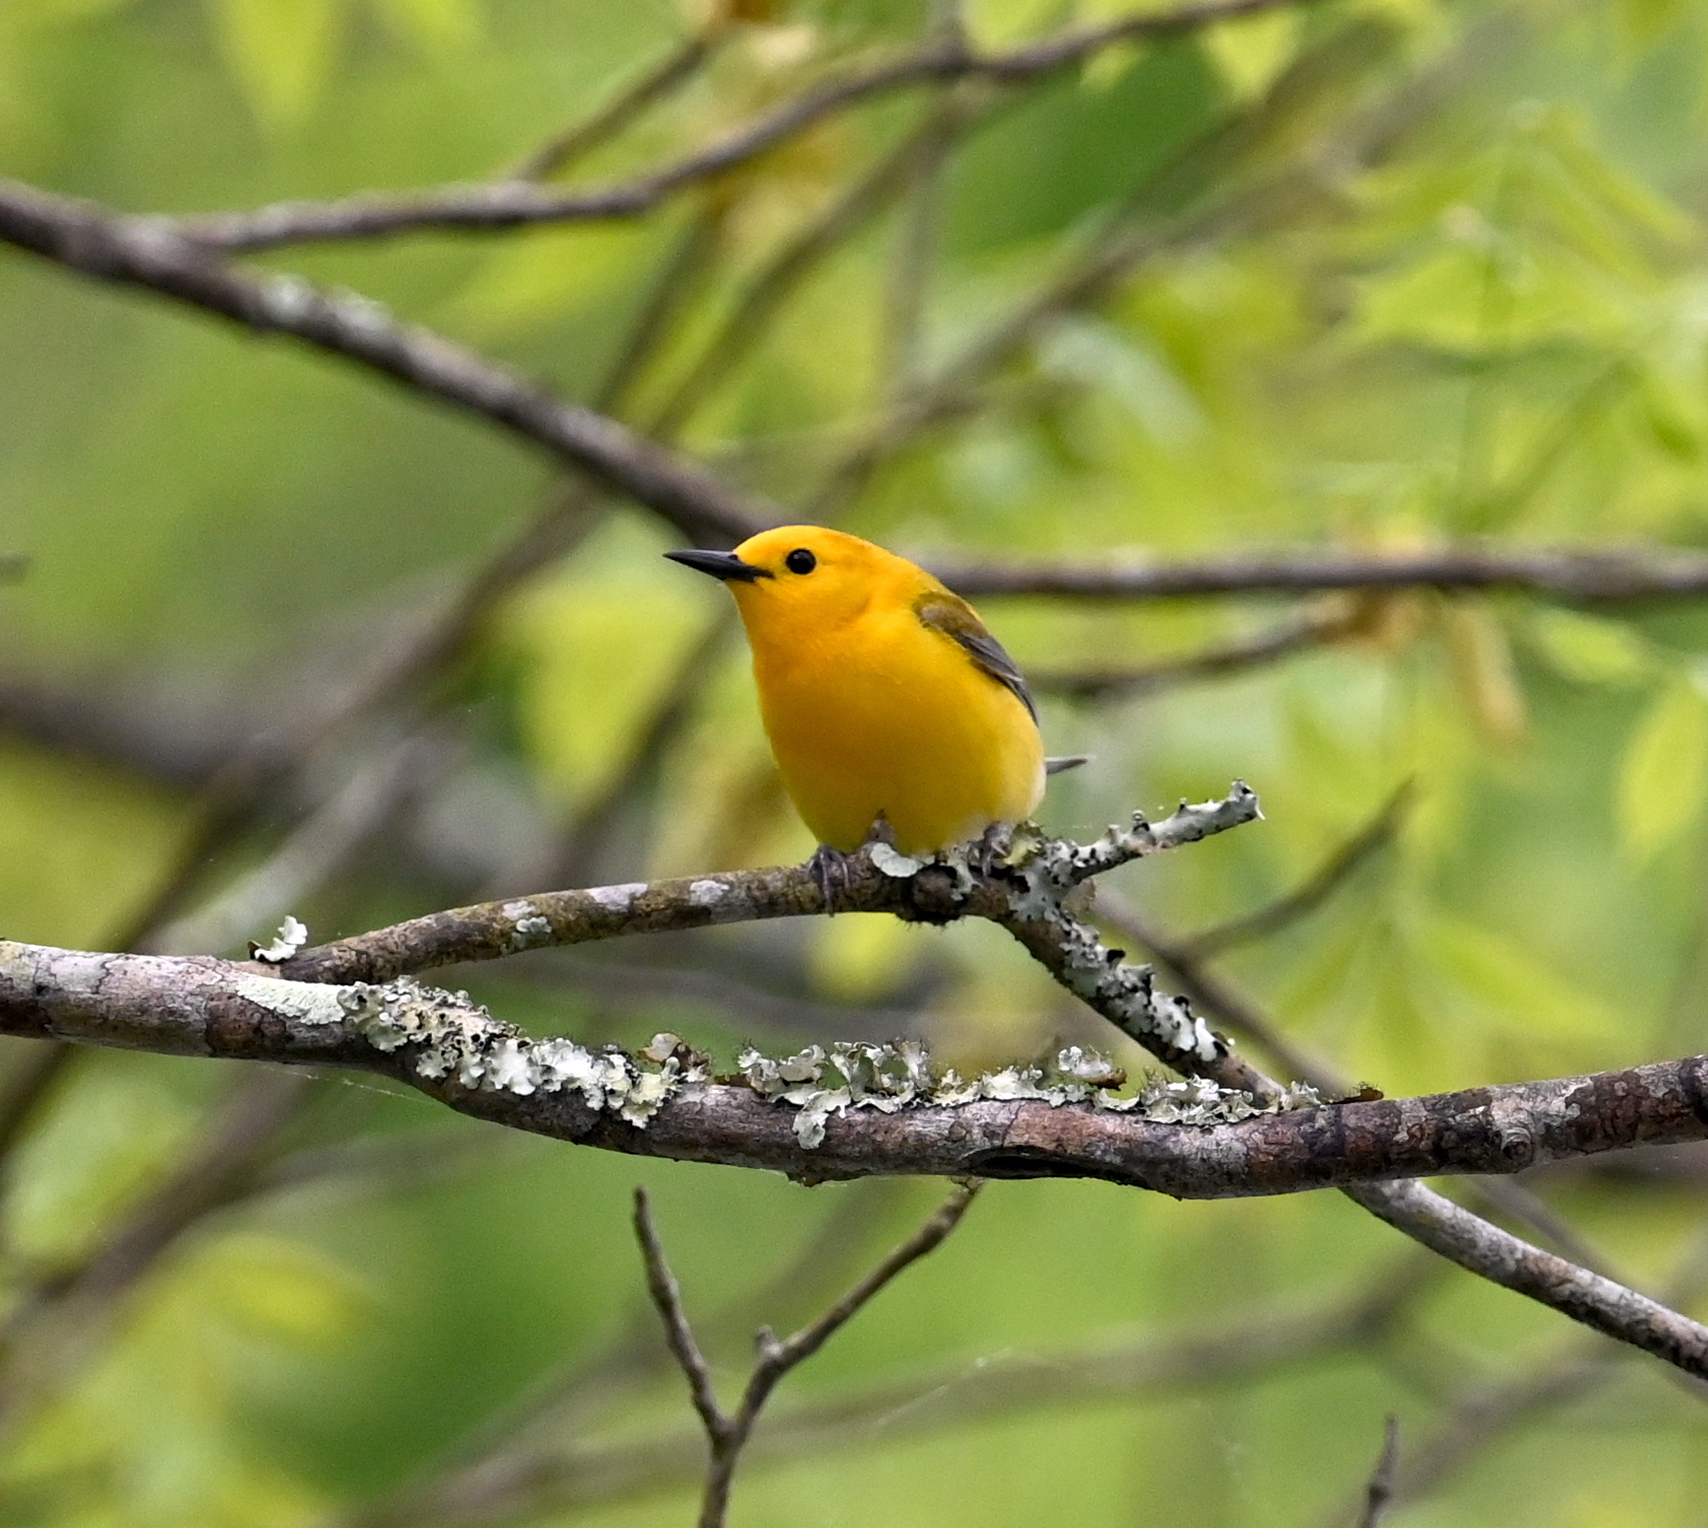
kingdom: Animalia
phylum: Chordata
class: Aves
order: Passeriformes
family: Parulidae
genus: Protonotaria
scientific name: Protonotaria citrea
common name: Prothonotary warbler
